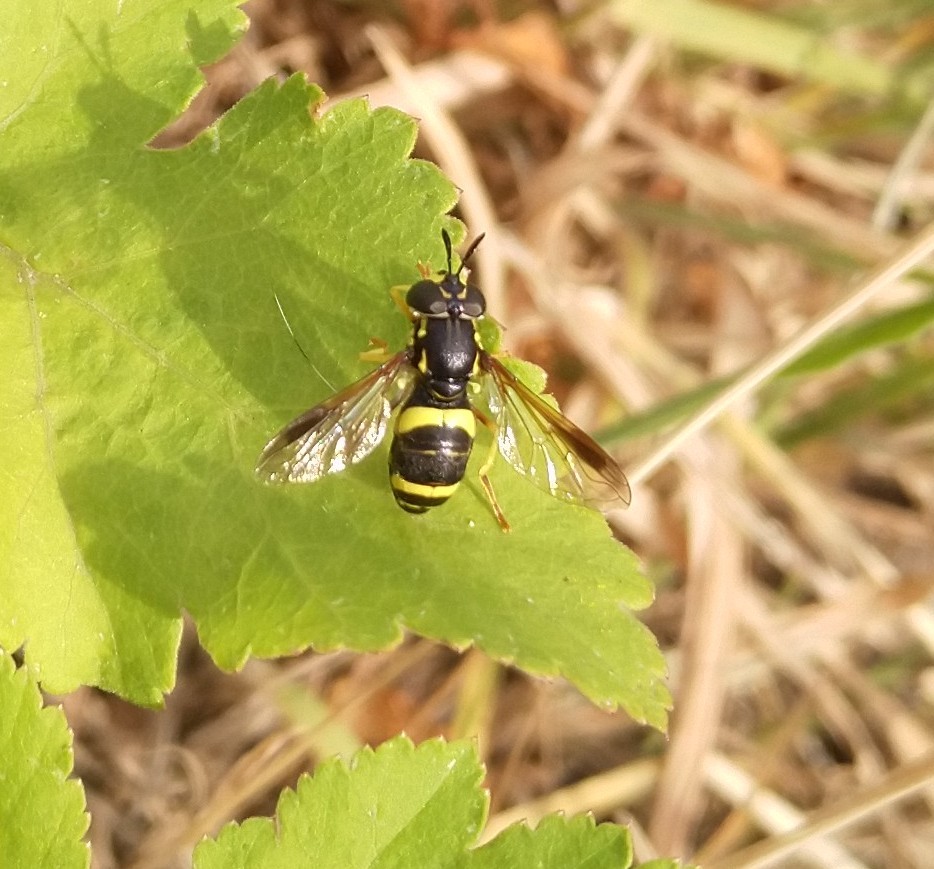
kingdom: Animalia
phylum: Arthropoda
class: Insecta
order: Diptera
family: Syrphidae
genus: Chrysotoxum
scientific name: Chrysotoxum bicincta
